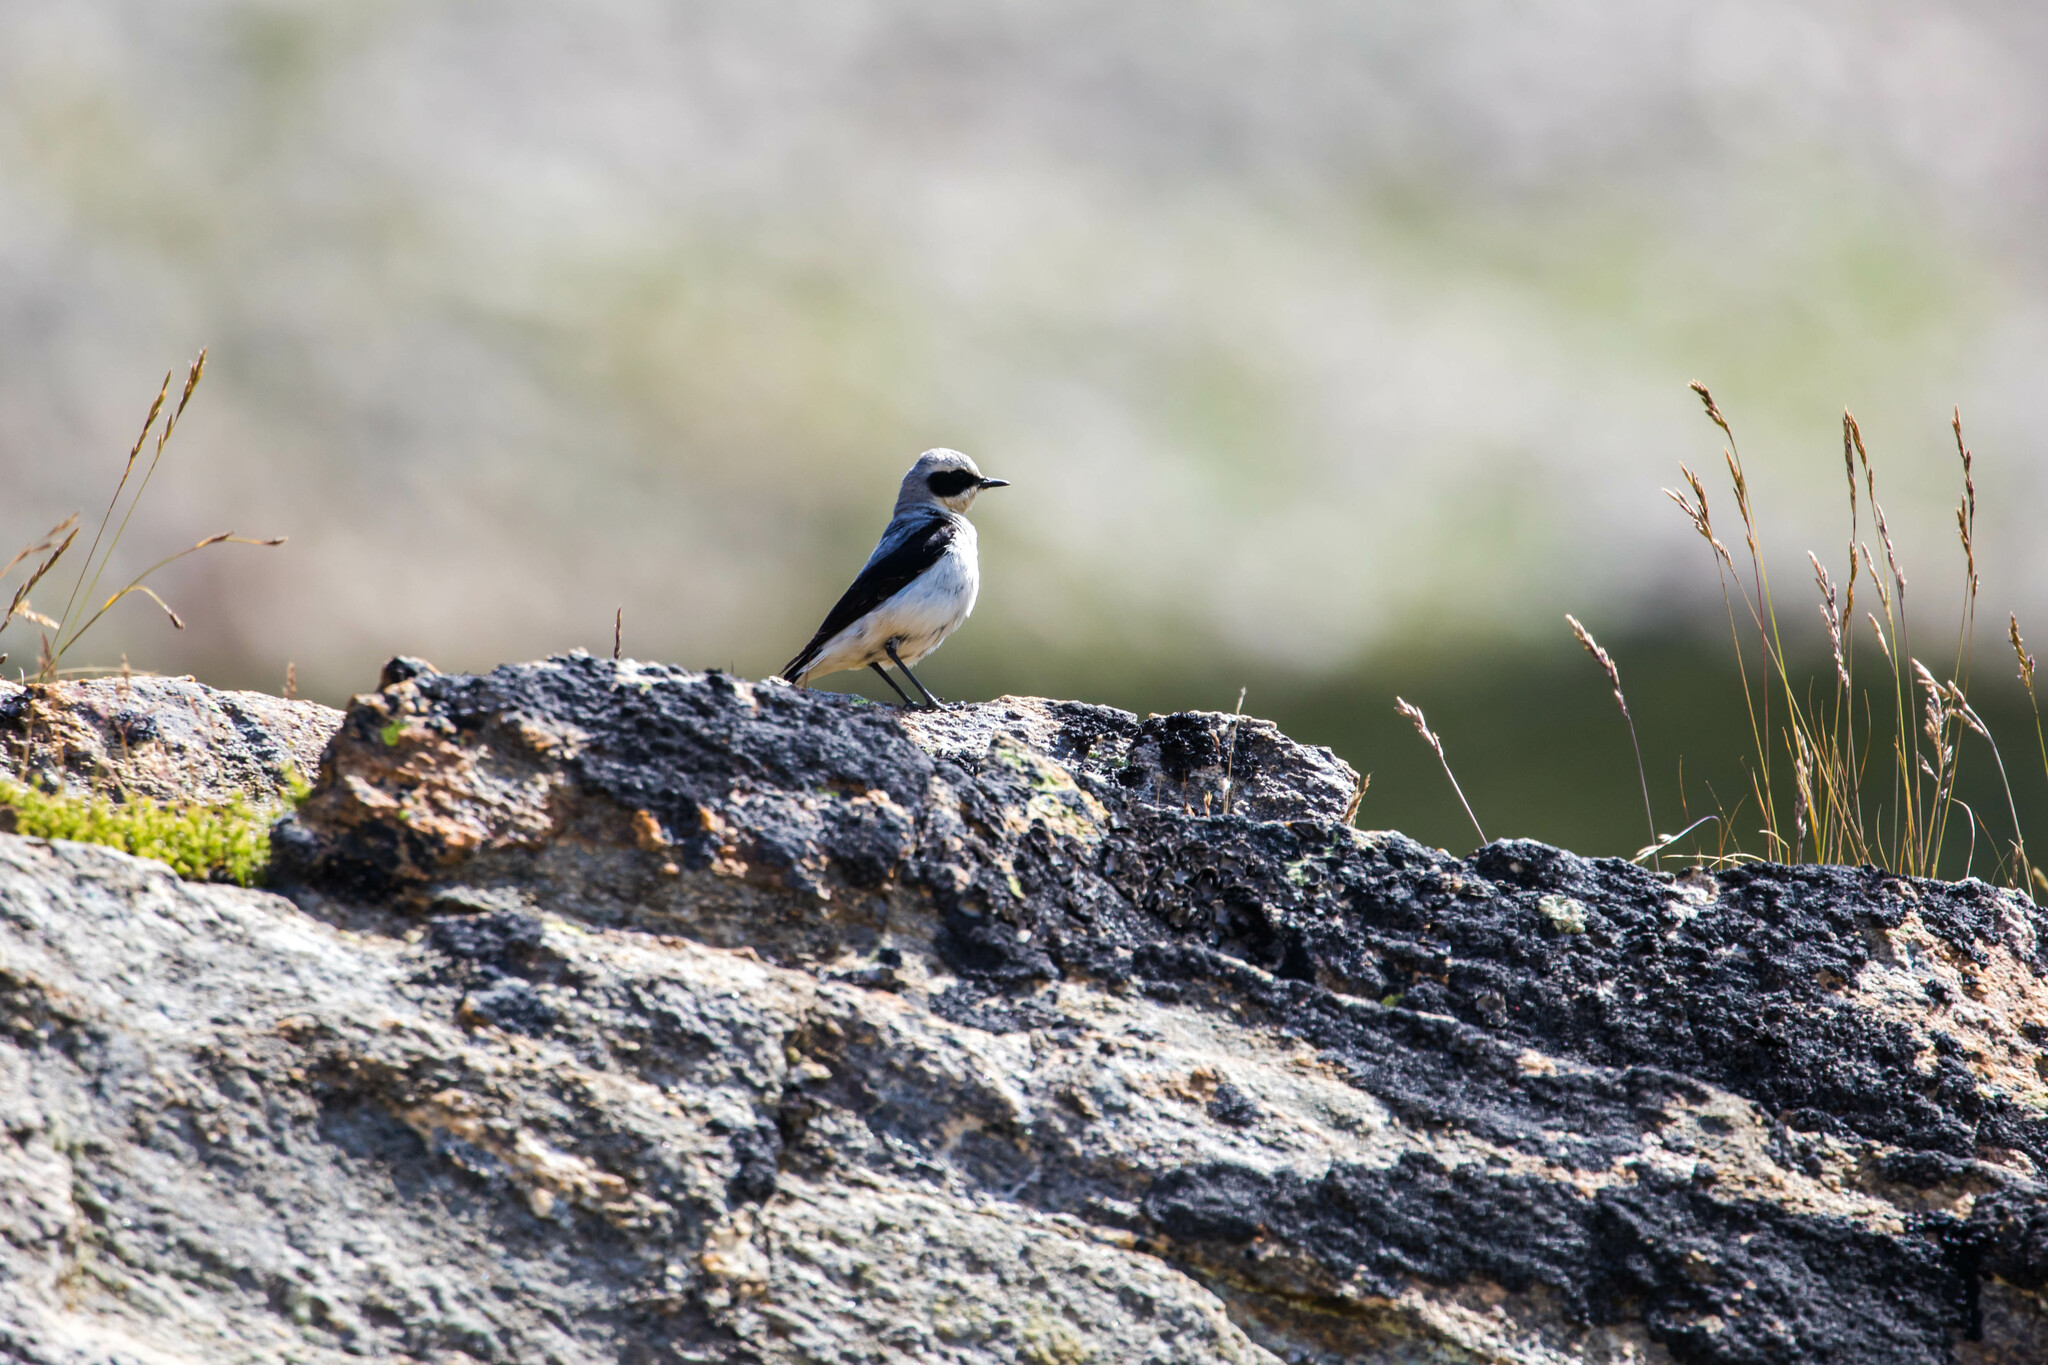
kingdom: Animalia
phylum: Chordata
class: Aves
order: Passeriformes
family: Muscicapidae
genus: Oenanthe
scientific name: Oenanthe oenanthe
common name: Northern wheatear
